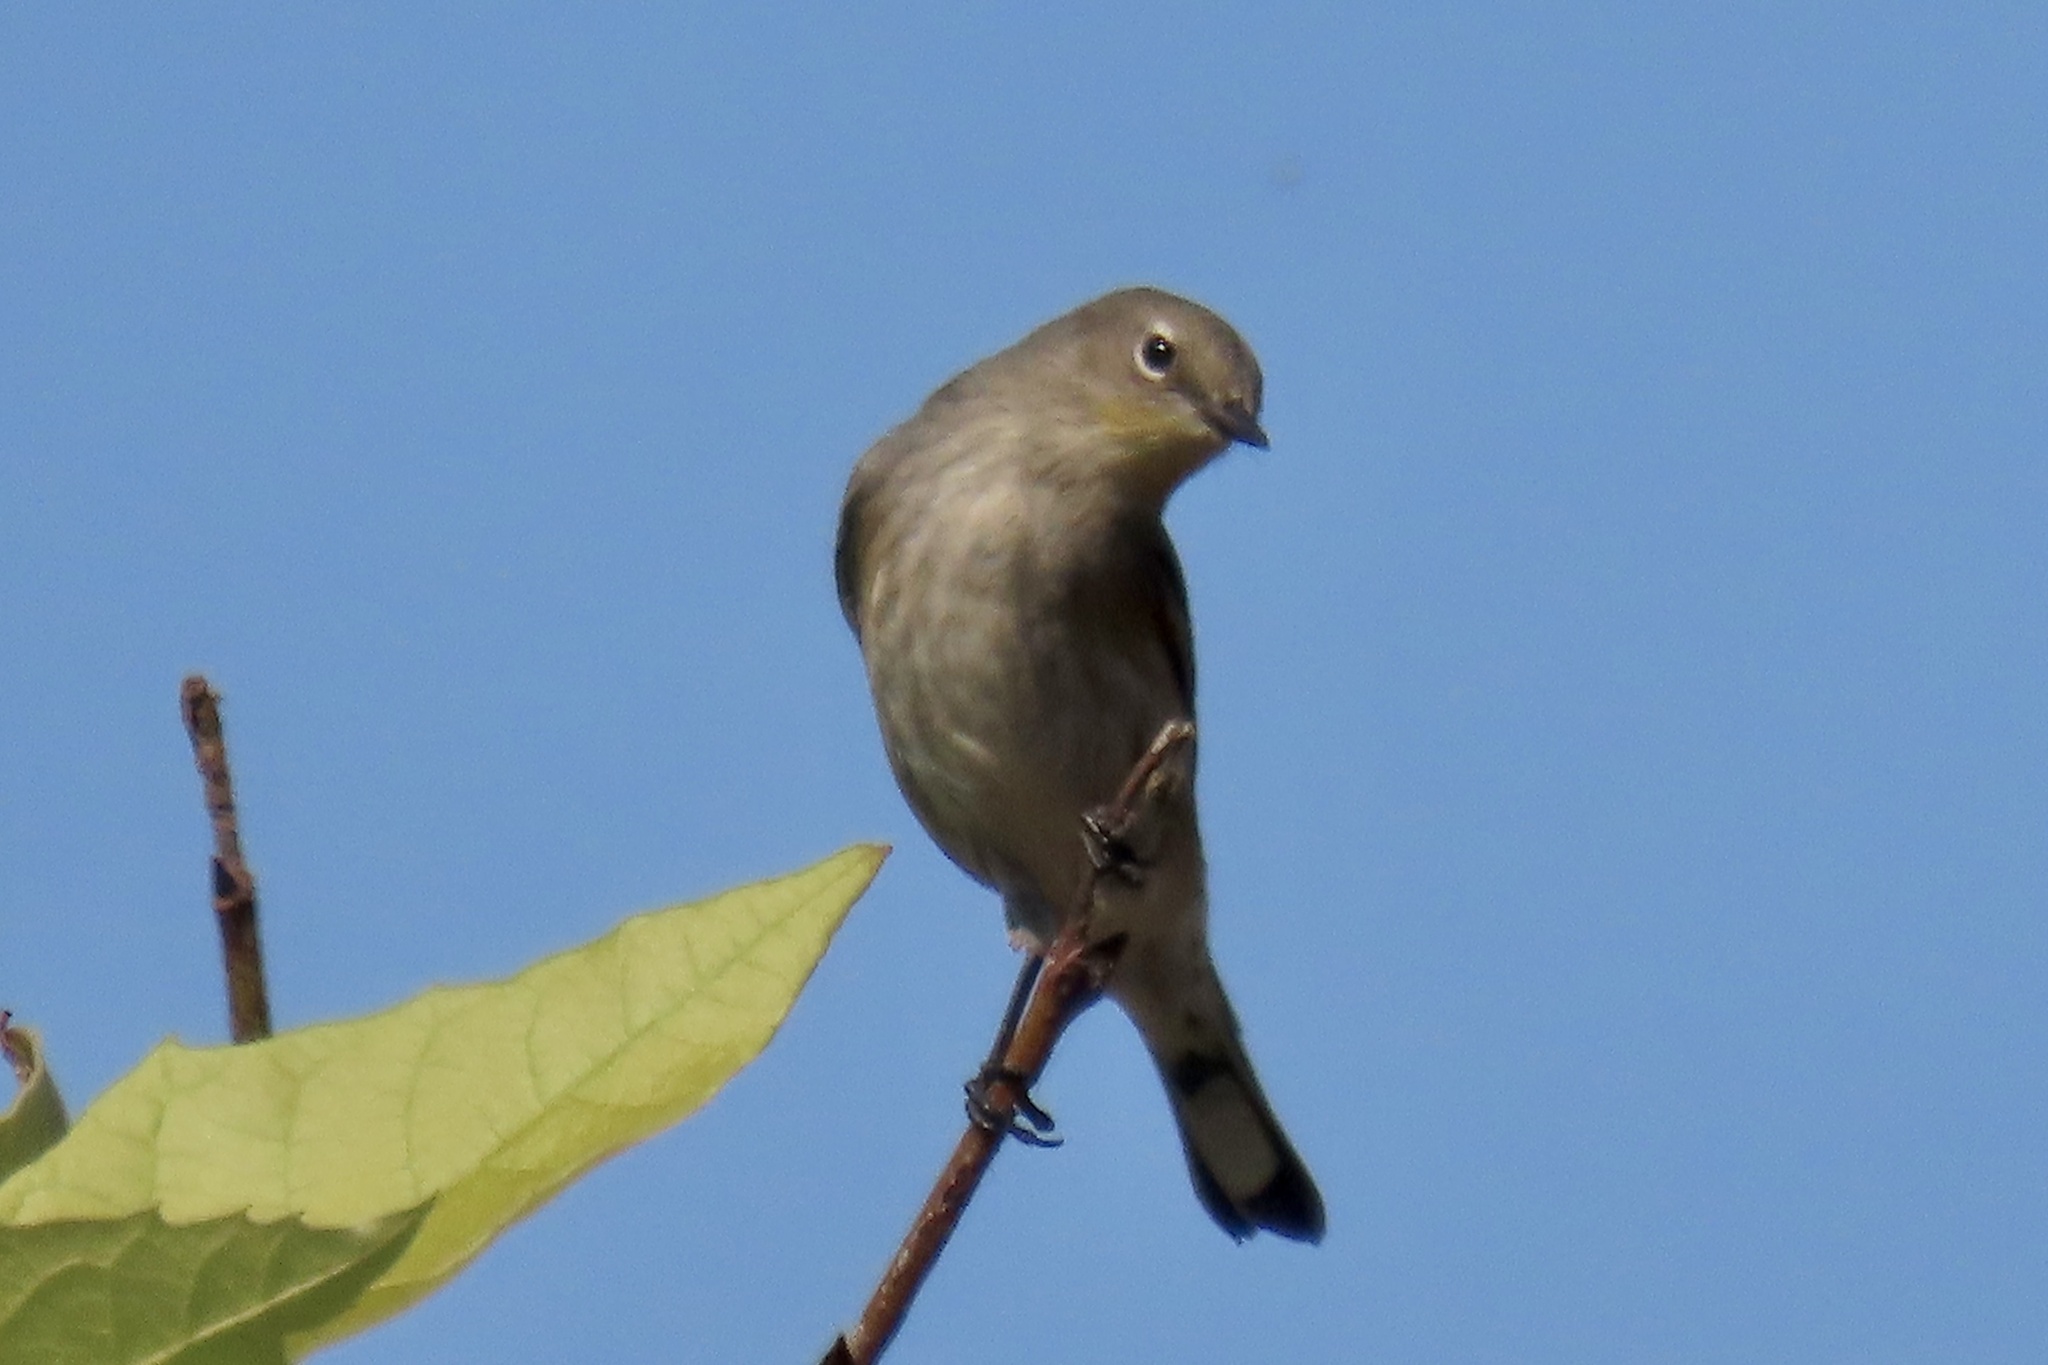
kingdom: Animalia
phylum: Chordata
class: Aves
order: Passeriformes
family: Parulidae
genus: Setophaga
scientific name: Setophaga coronata
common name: Myrtle warbler
